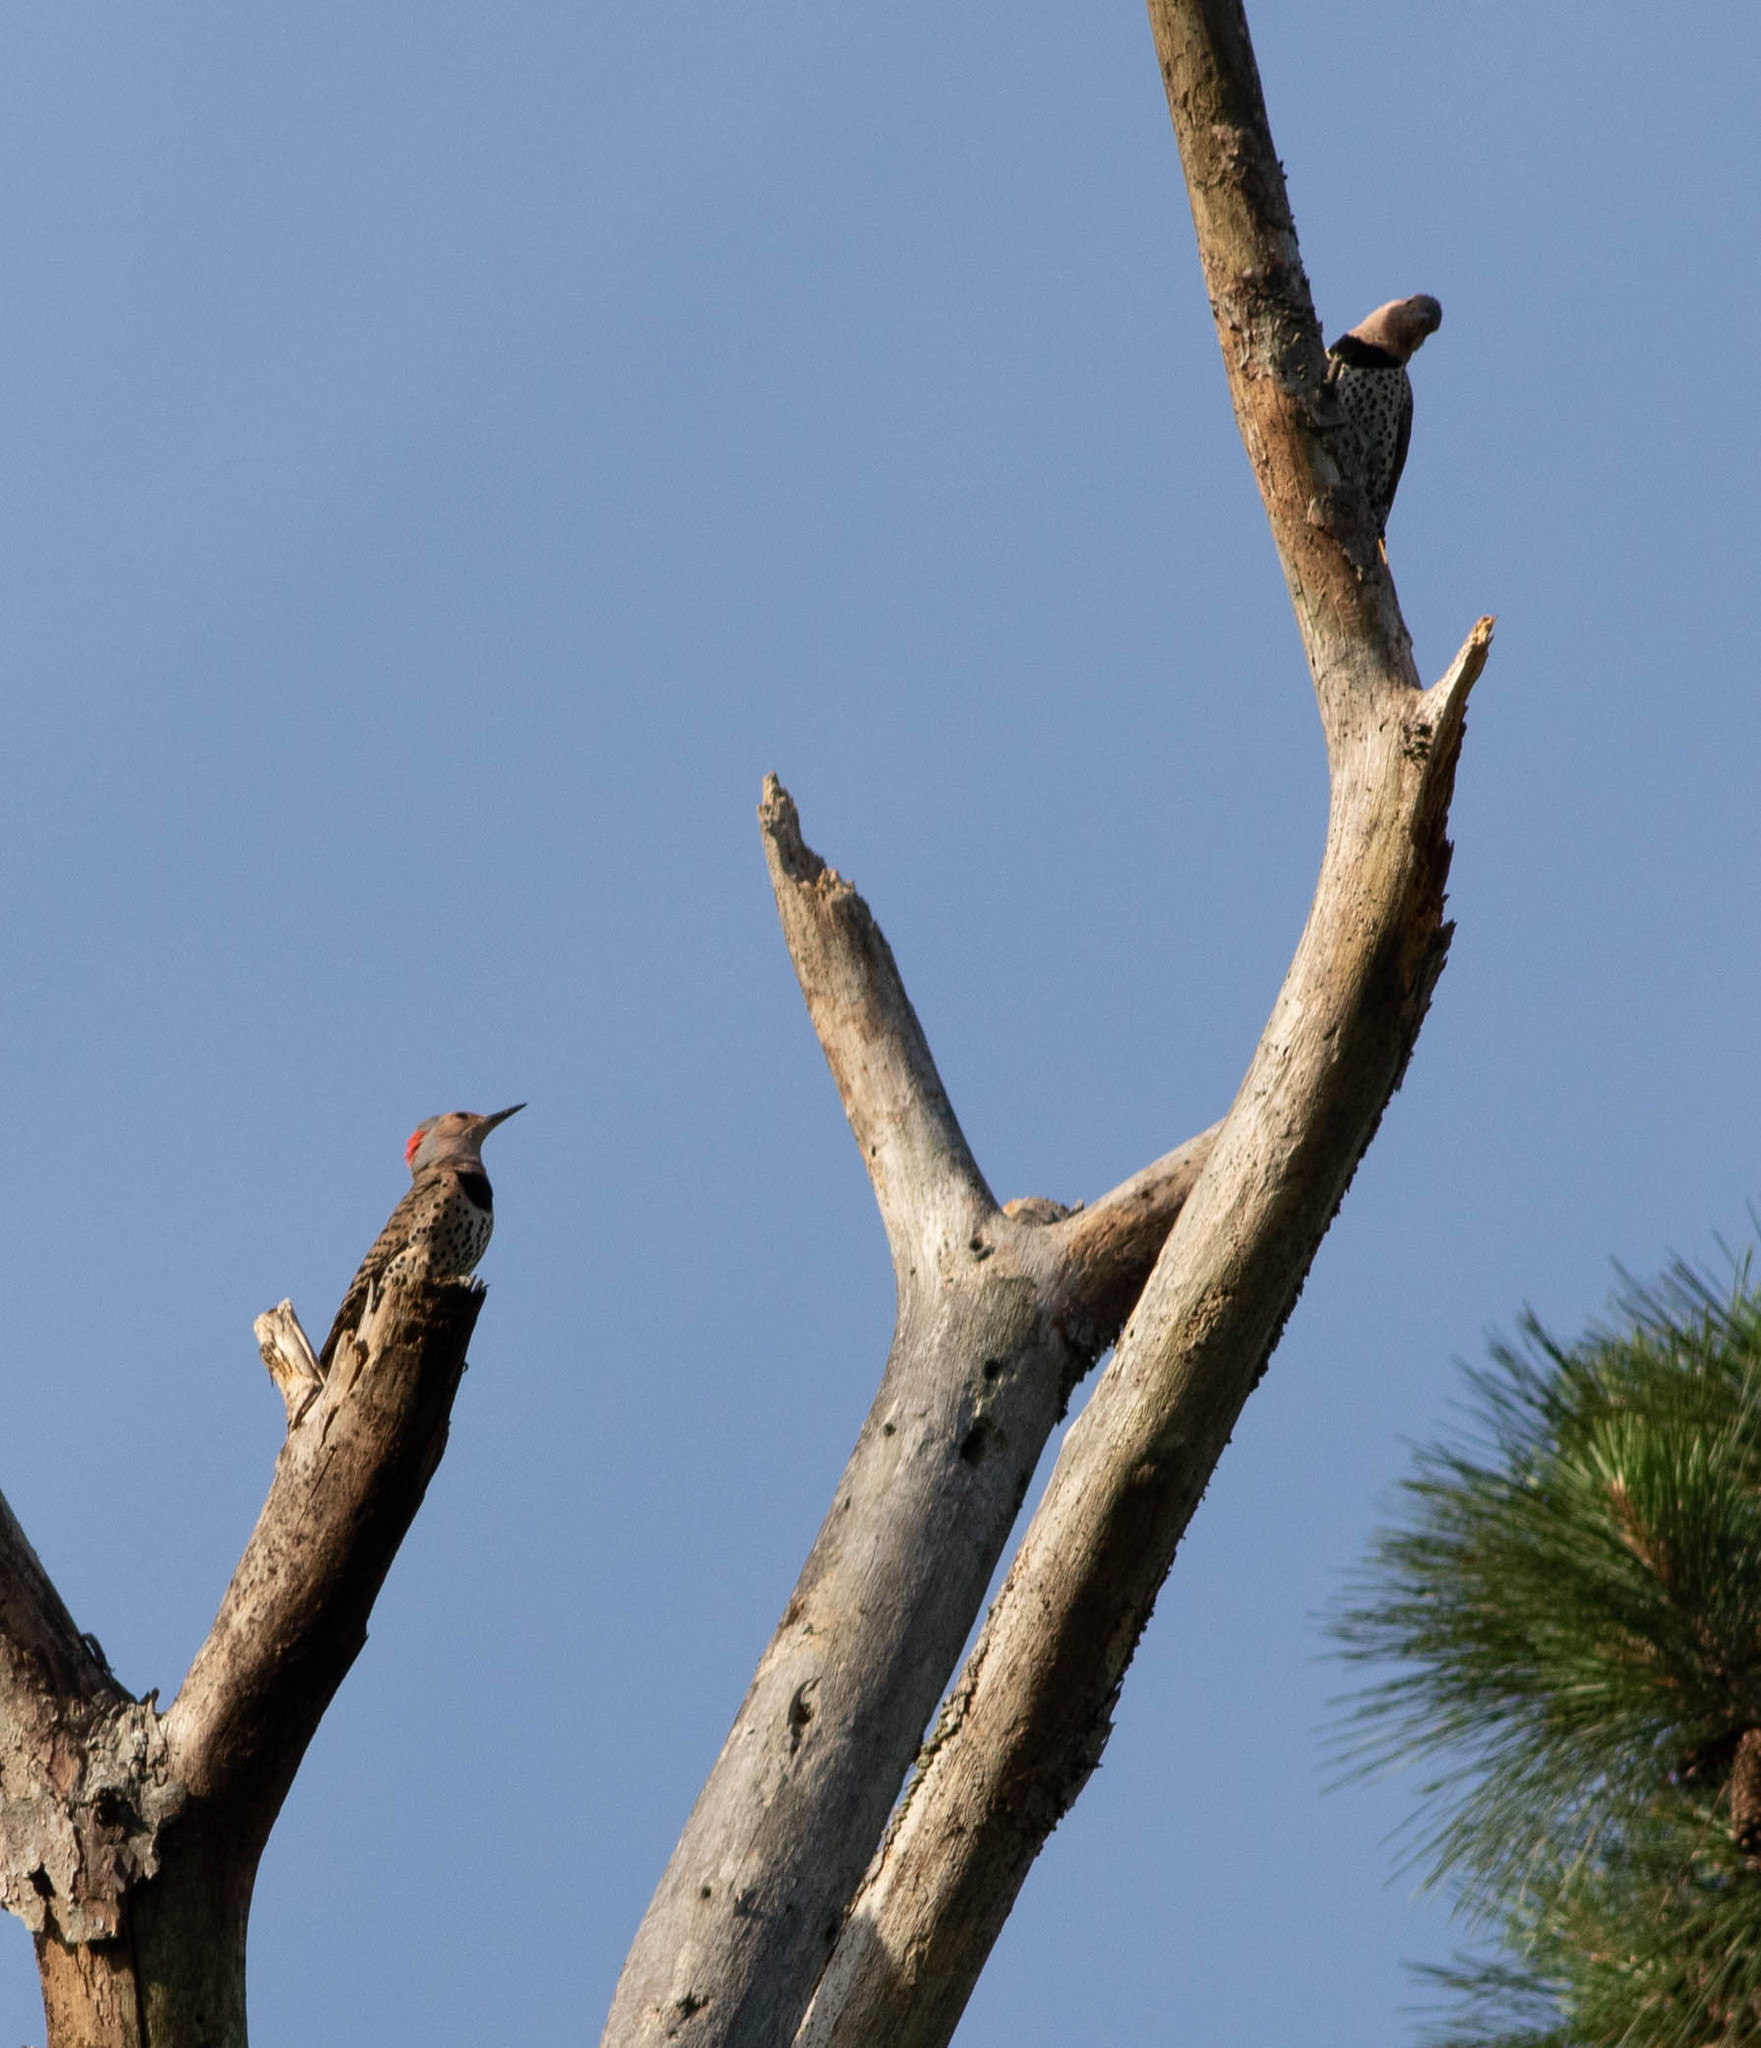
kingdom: Animalia
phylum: Chordata
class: Aves
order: Piciformes
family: Picidae
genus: Colaptes
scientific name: Colaptes auratus
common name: Northern flicker
